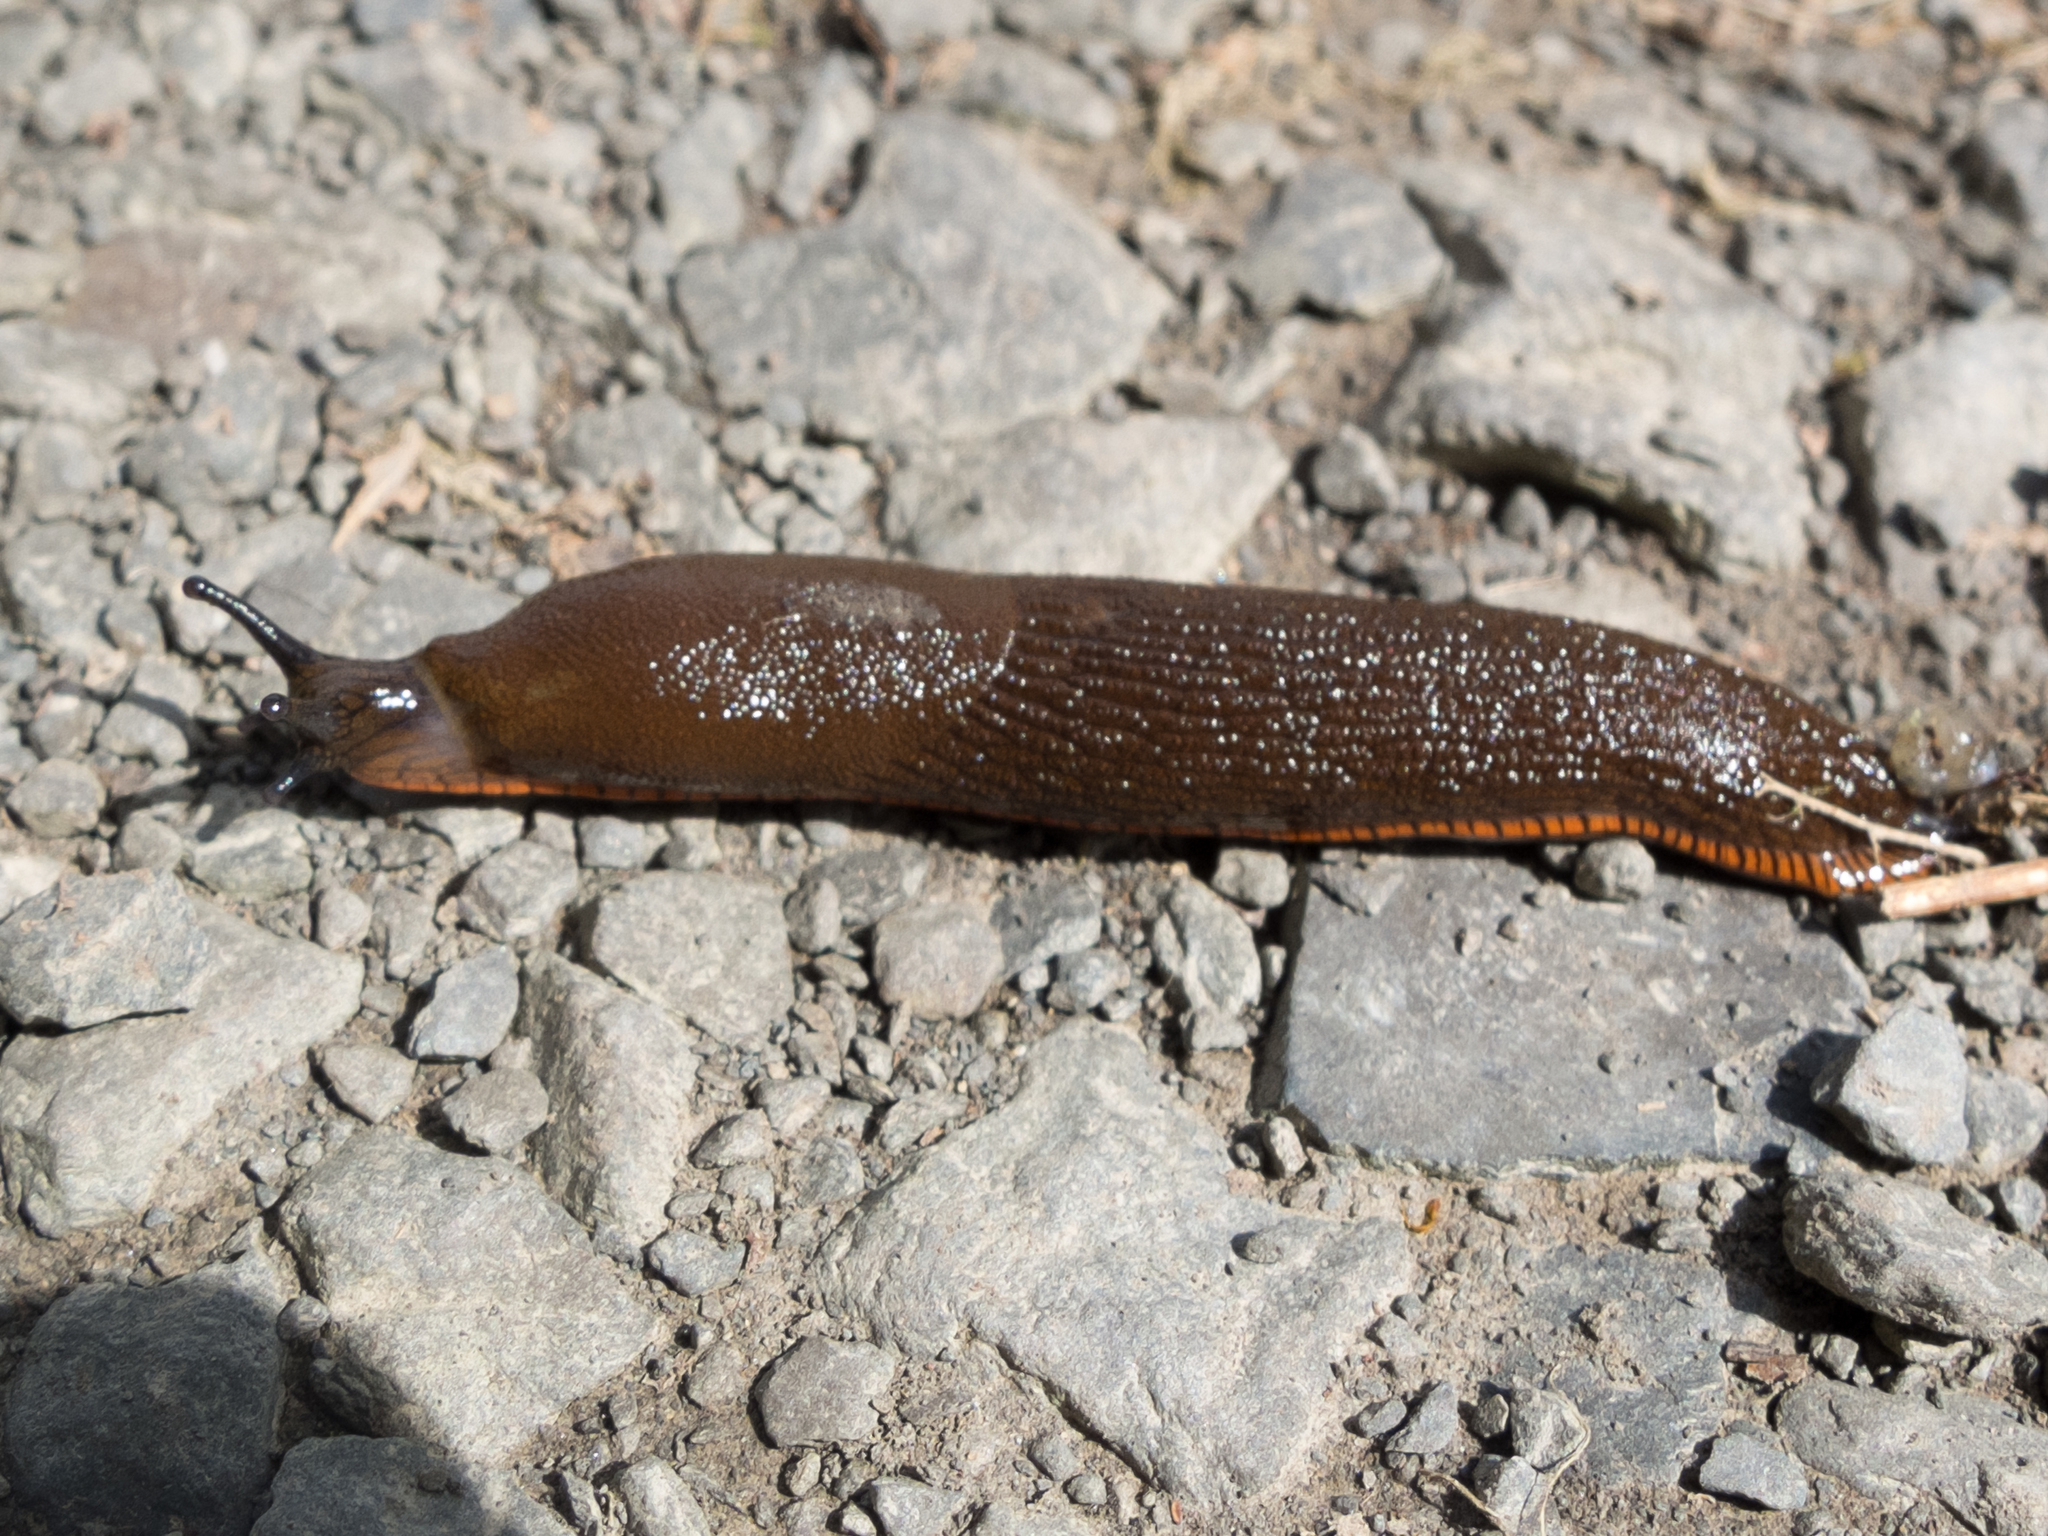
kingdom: Animalia
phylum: Mollusca
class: Gastropoda
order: Stylommatophora
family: Arionidae
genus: Arion
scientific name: Arion rufus
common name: Chocolate arion
